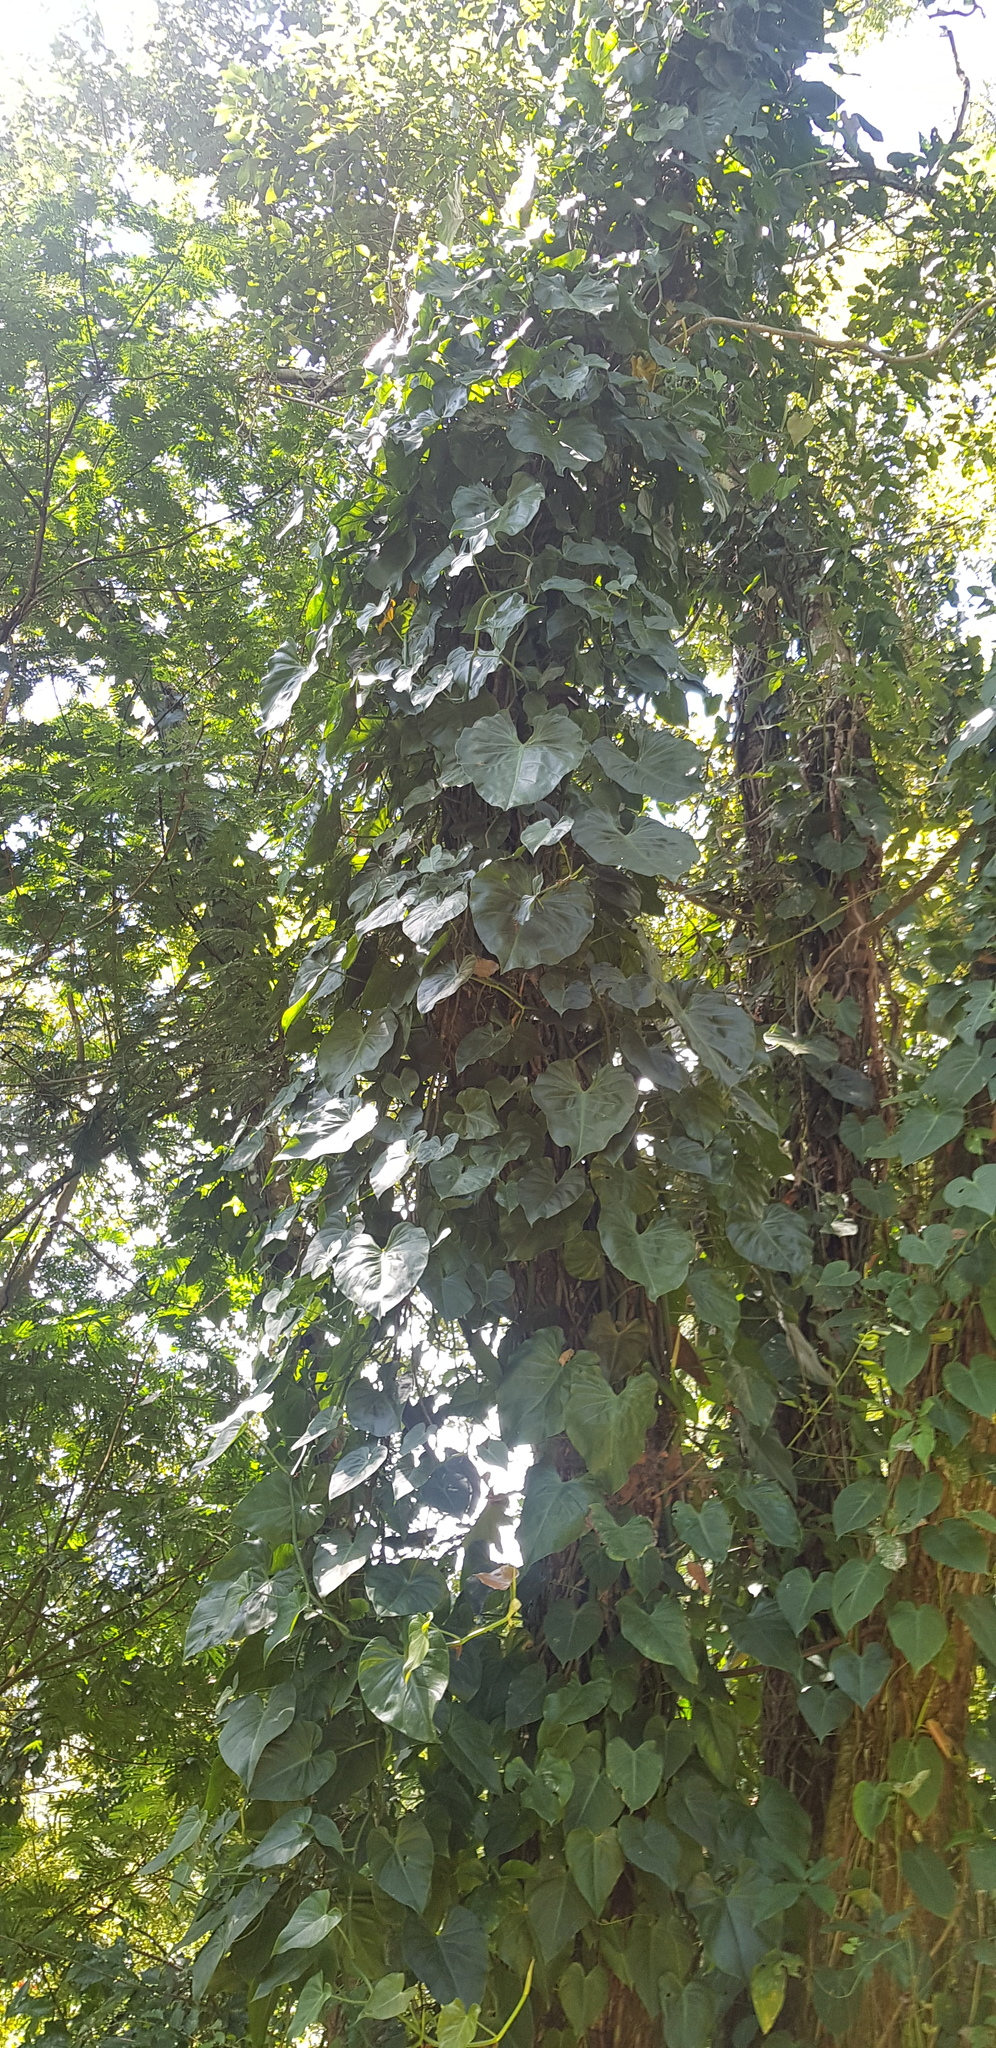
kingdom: Plantae
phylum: Tracheophyta
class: Liliopsida
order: Alismatales
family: Araceae
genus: Philodendron
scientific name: Philodendron hederaceum
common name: Vilevine
